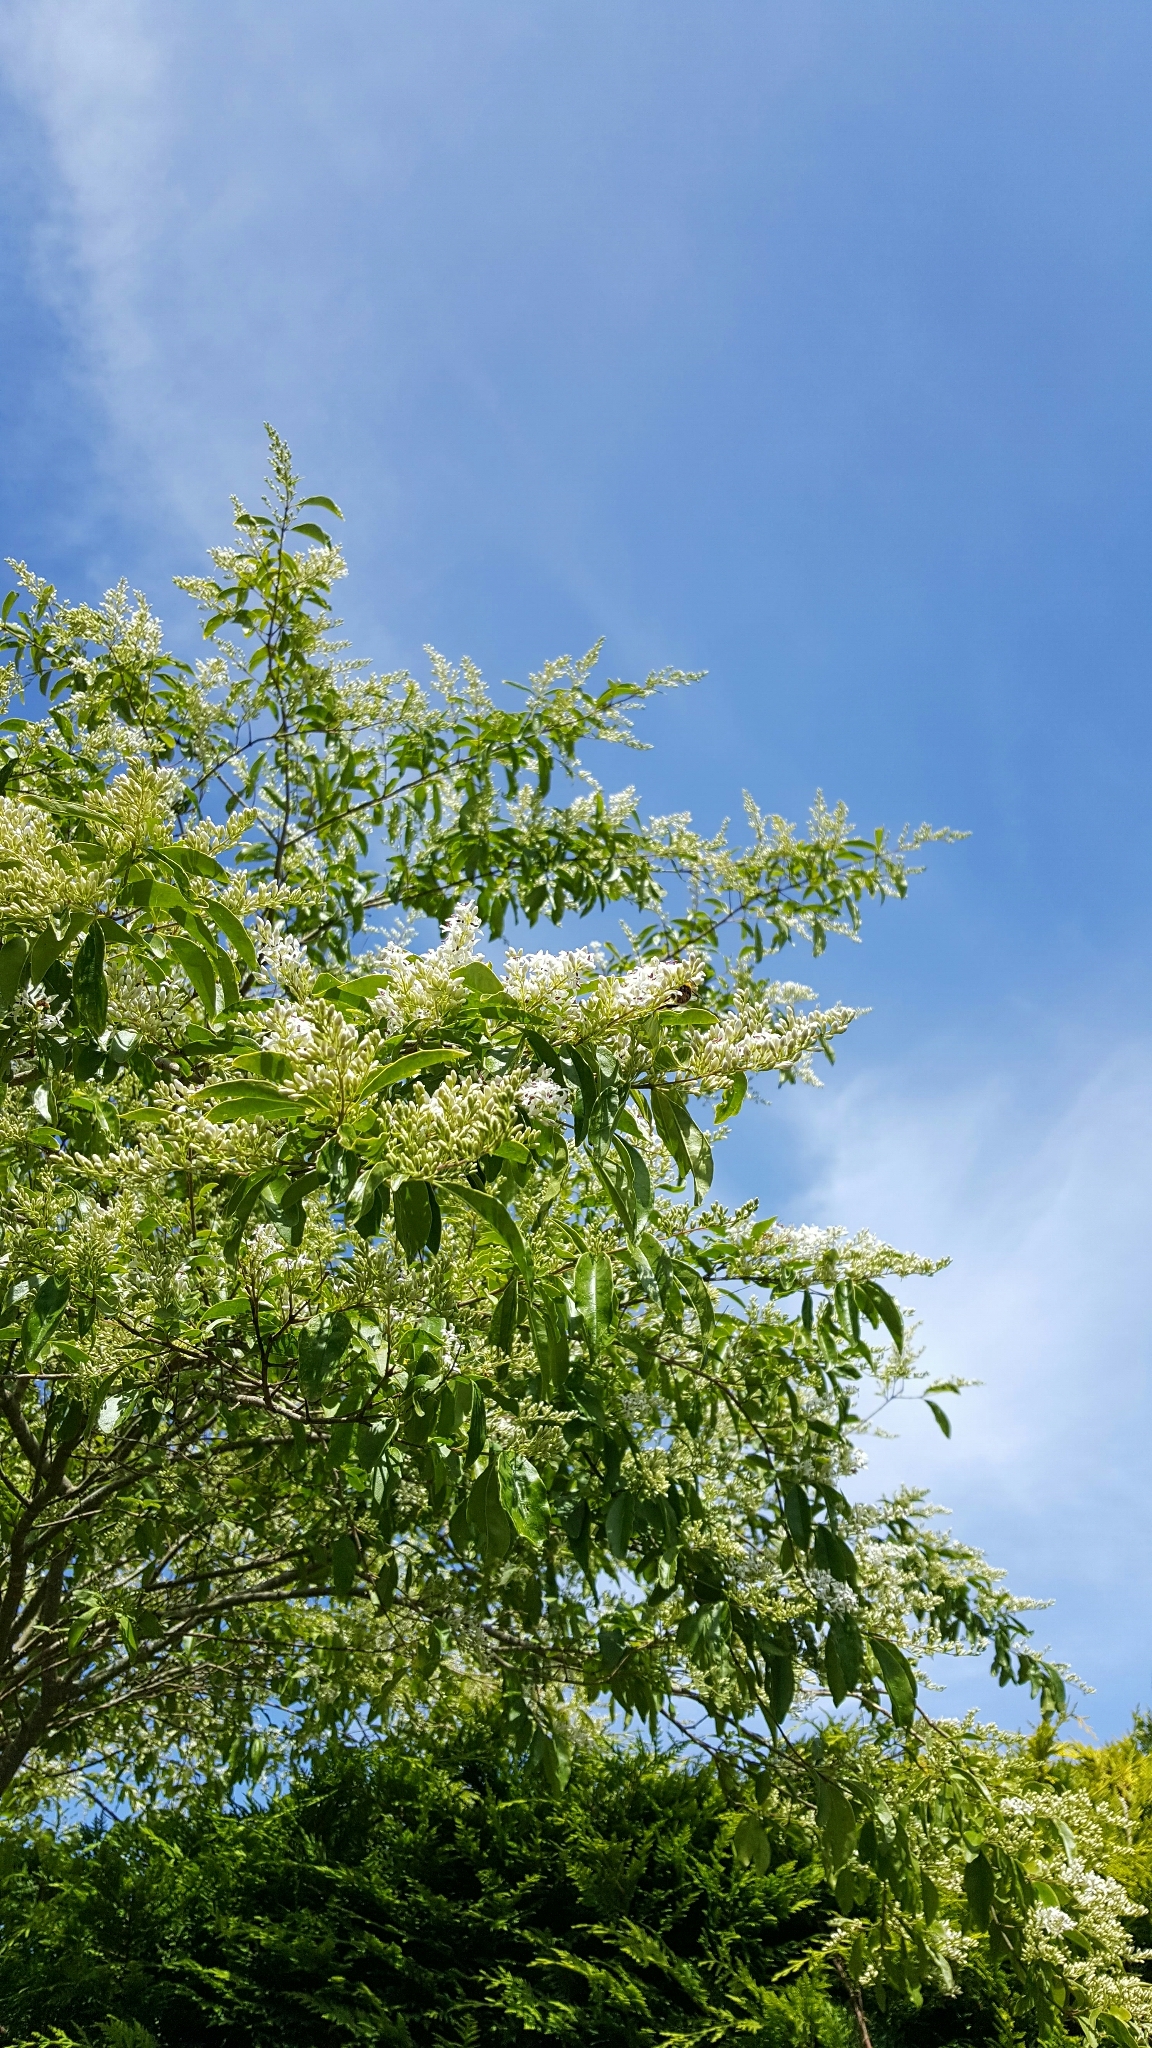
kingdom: Plantae
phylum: Tracheophyta
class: Magnoliopsida
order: Lamiales
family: Oleaceae
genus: Ligustrum
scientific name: Ligustrum sinense
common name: Chinese privet
